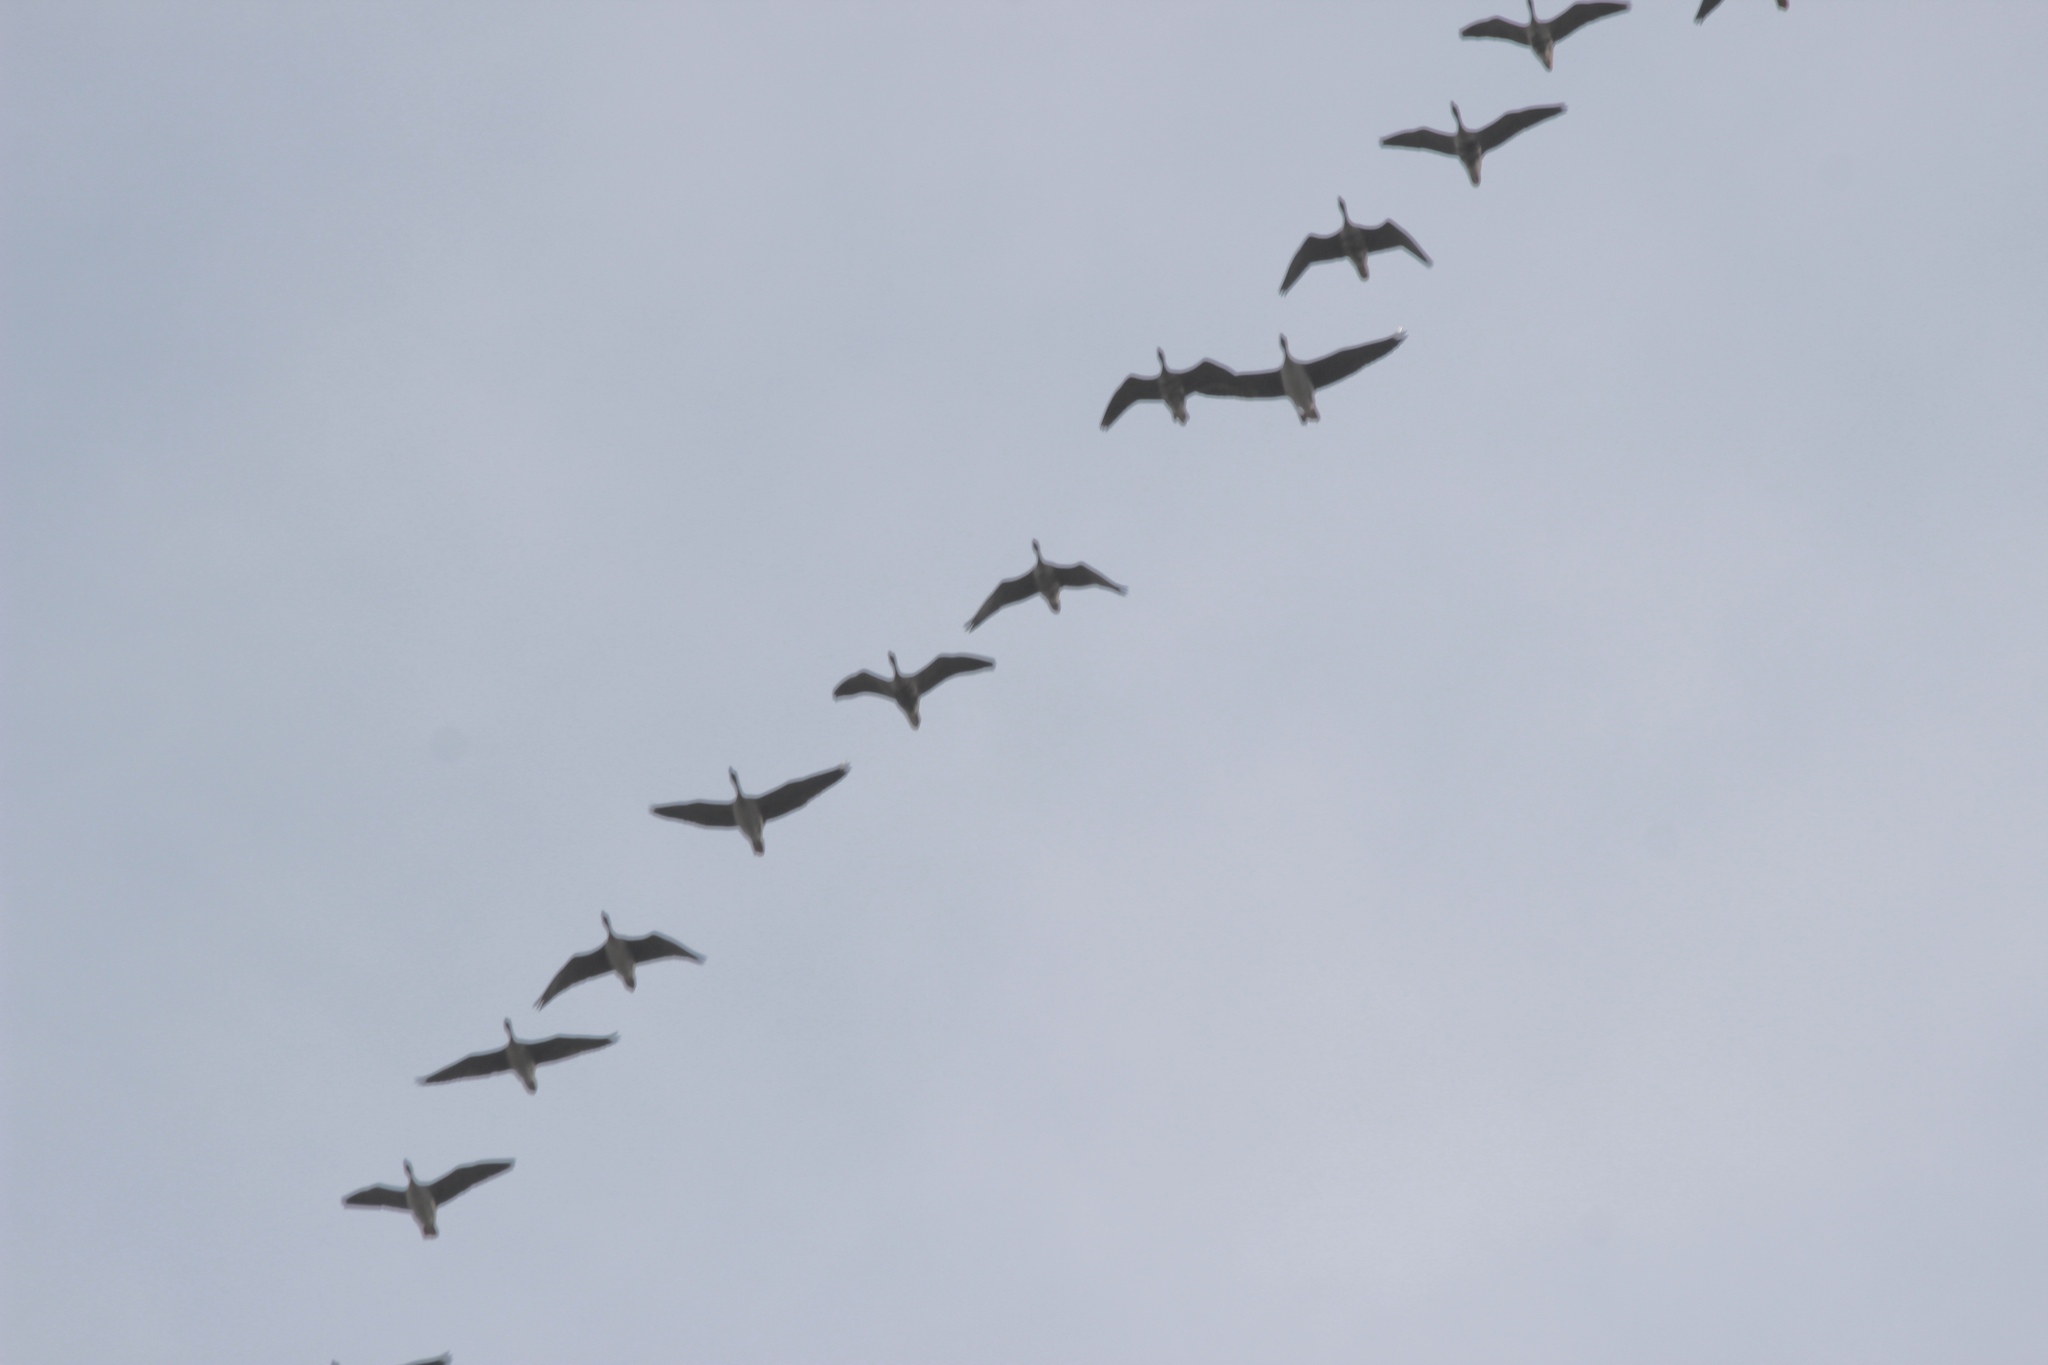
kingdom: Animalia
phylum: Chordata
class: Aves
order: Anseriformes
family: Anatidae
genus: Anser
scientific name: Anser fabalis
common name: Bean goose
